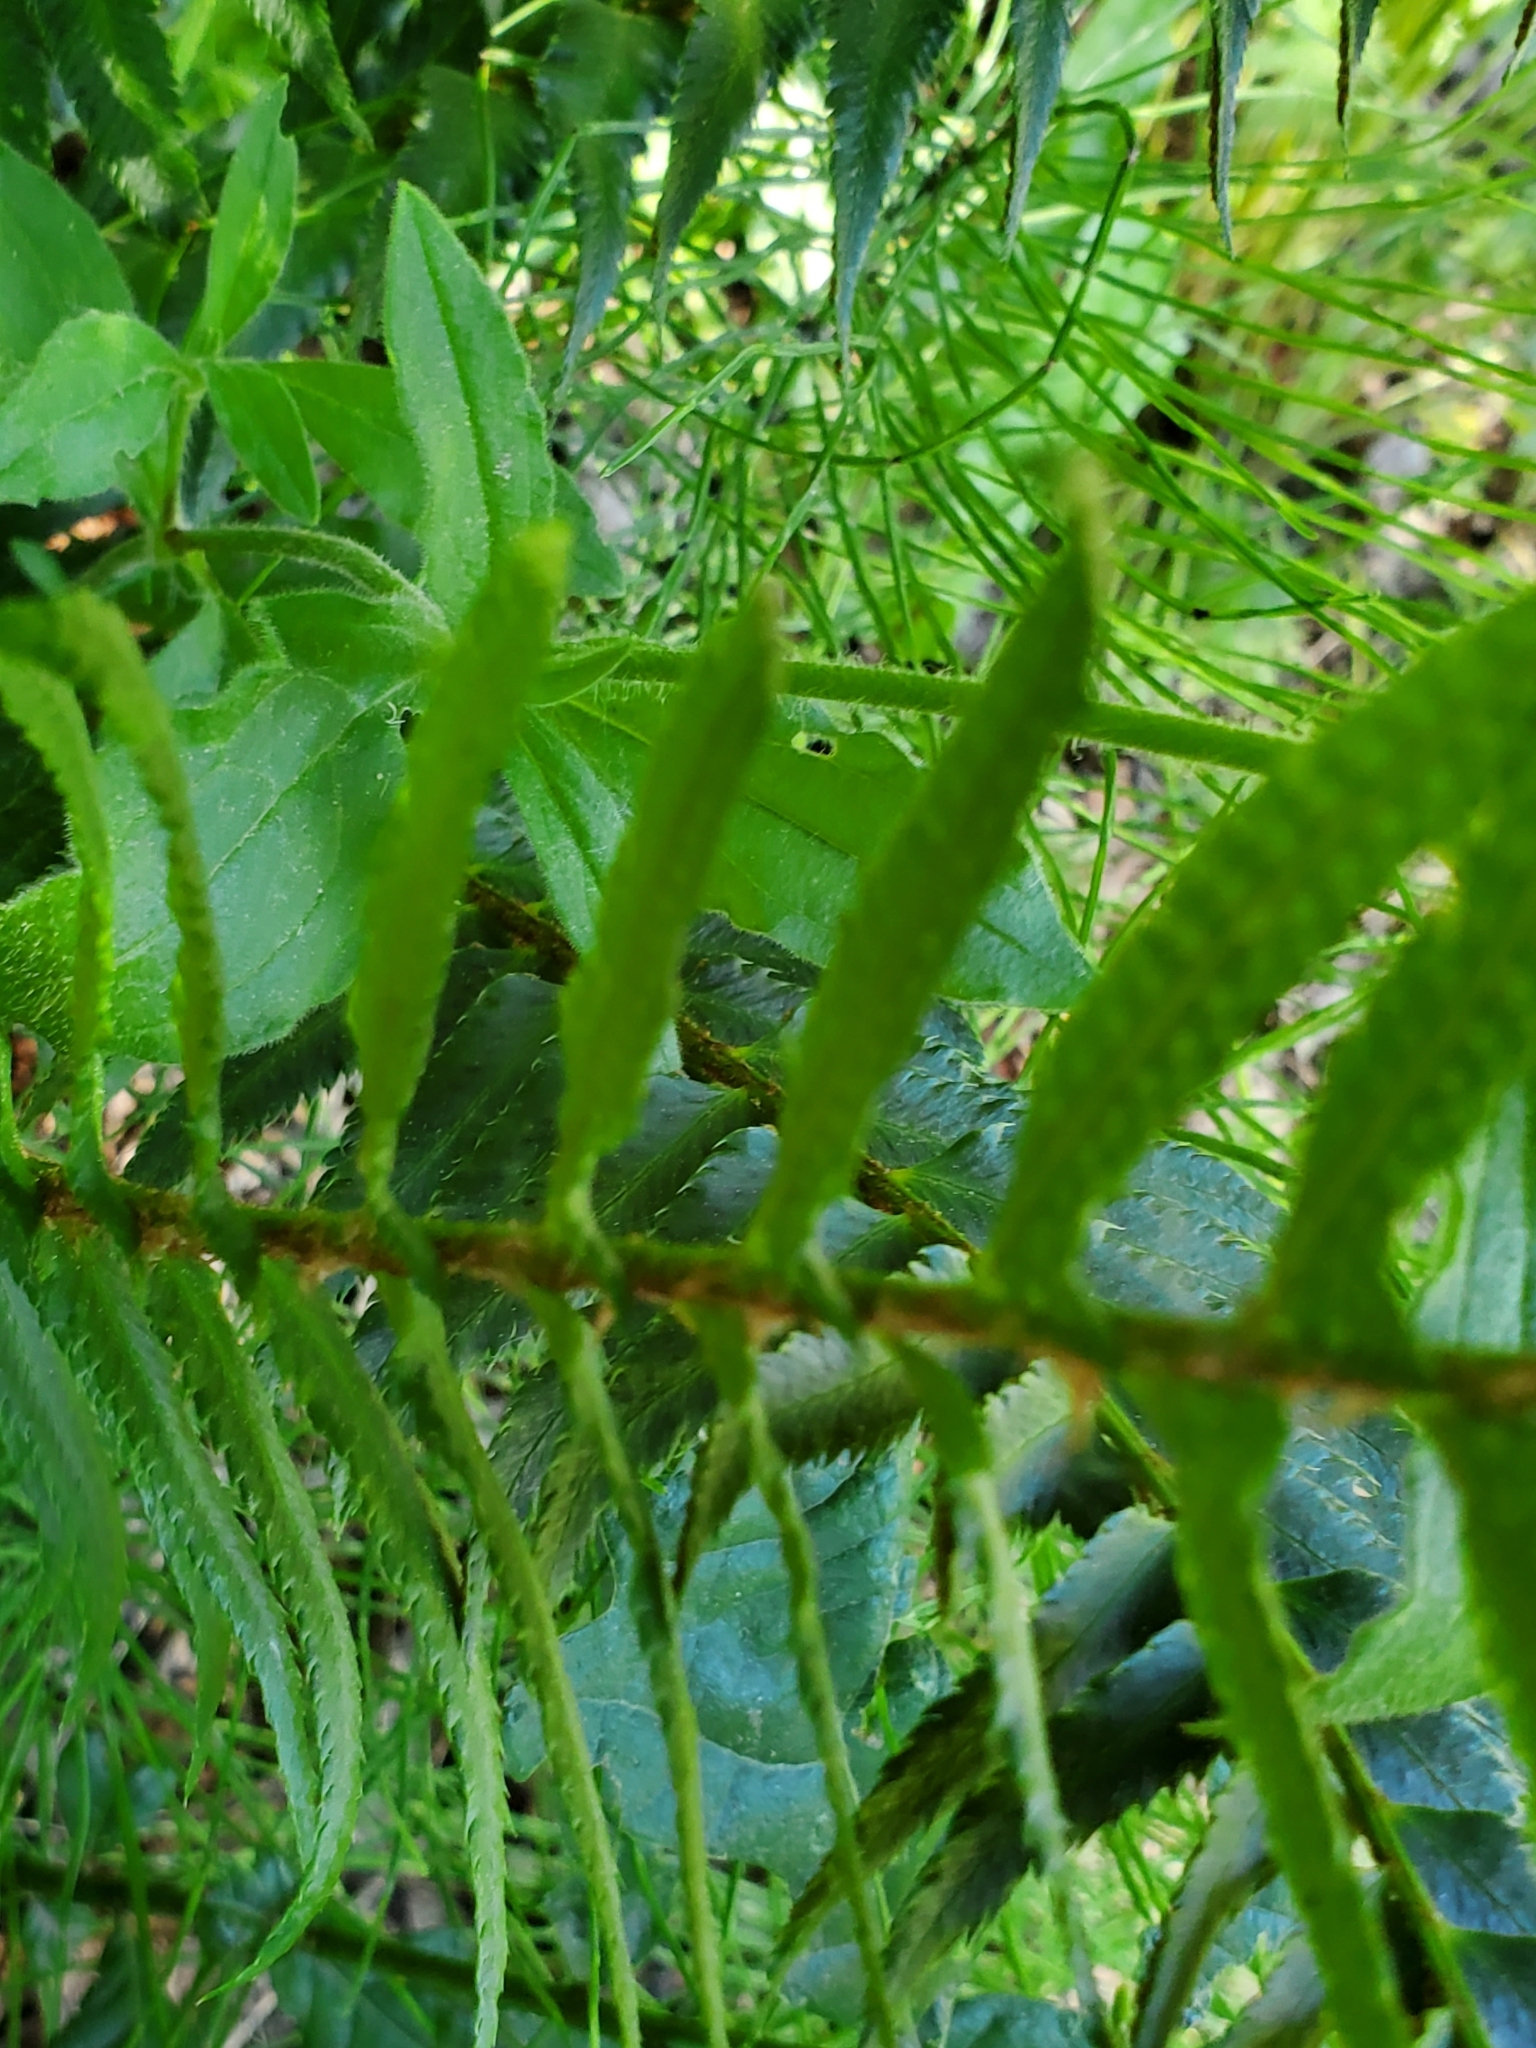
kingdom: Plantae
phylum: Tracheophyta
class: Polypodiopsida
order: Polypodiales
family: Dryopteridaceae
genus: Polystichum
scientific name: Polystichum munitum
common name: Western sword-fern
